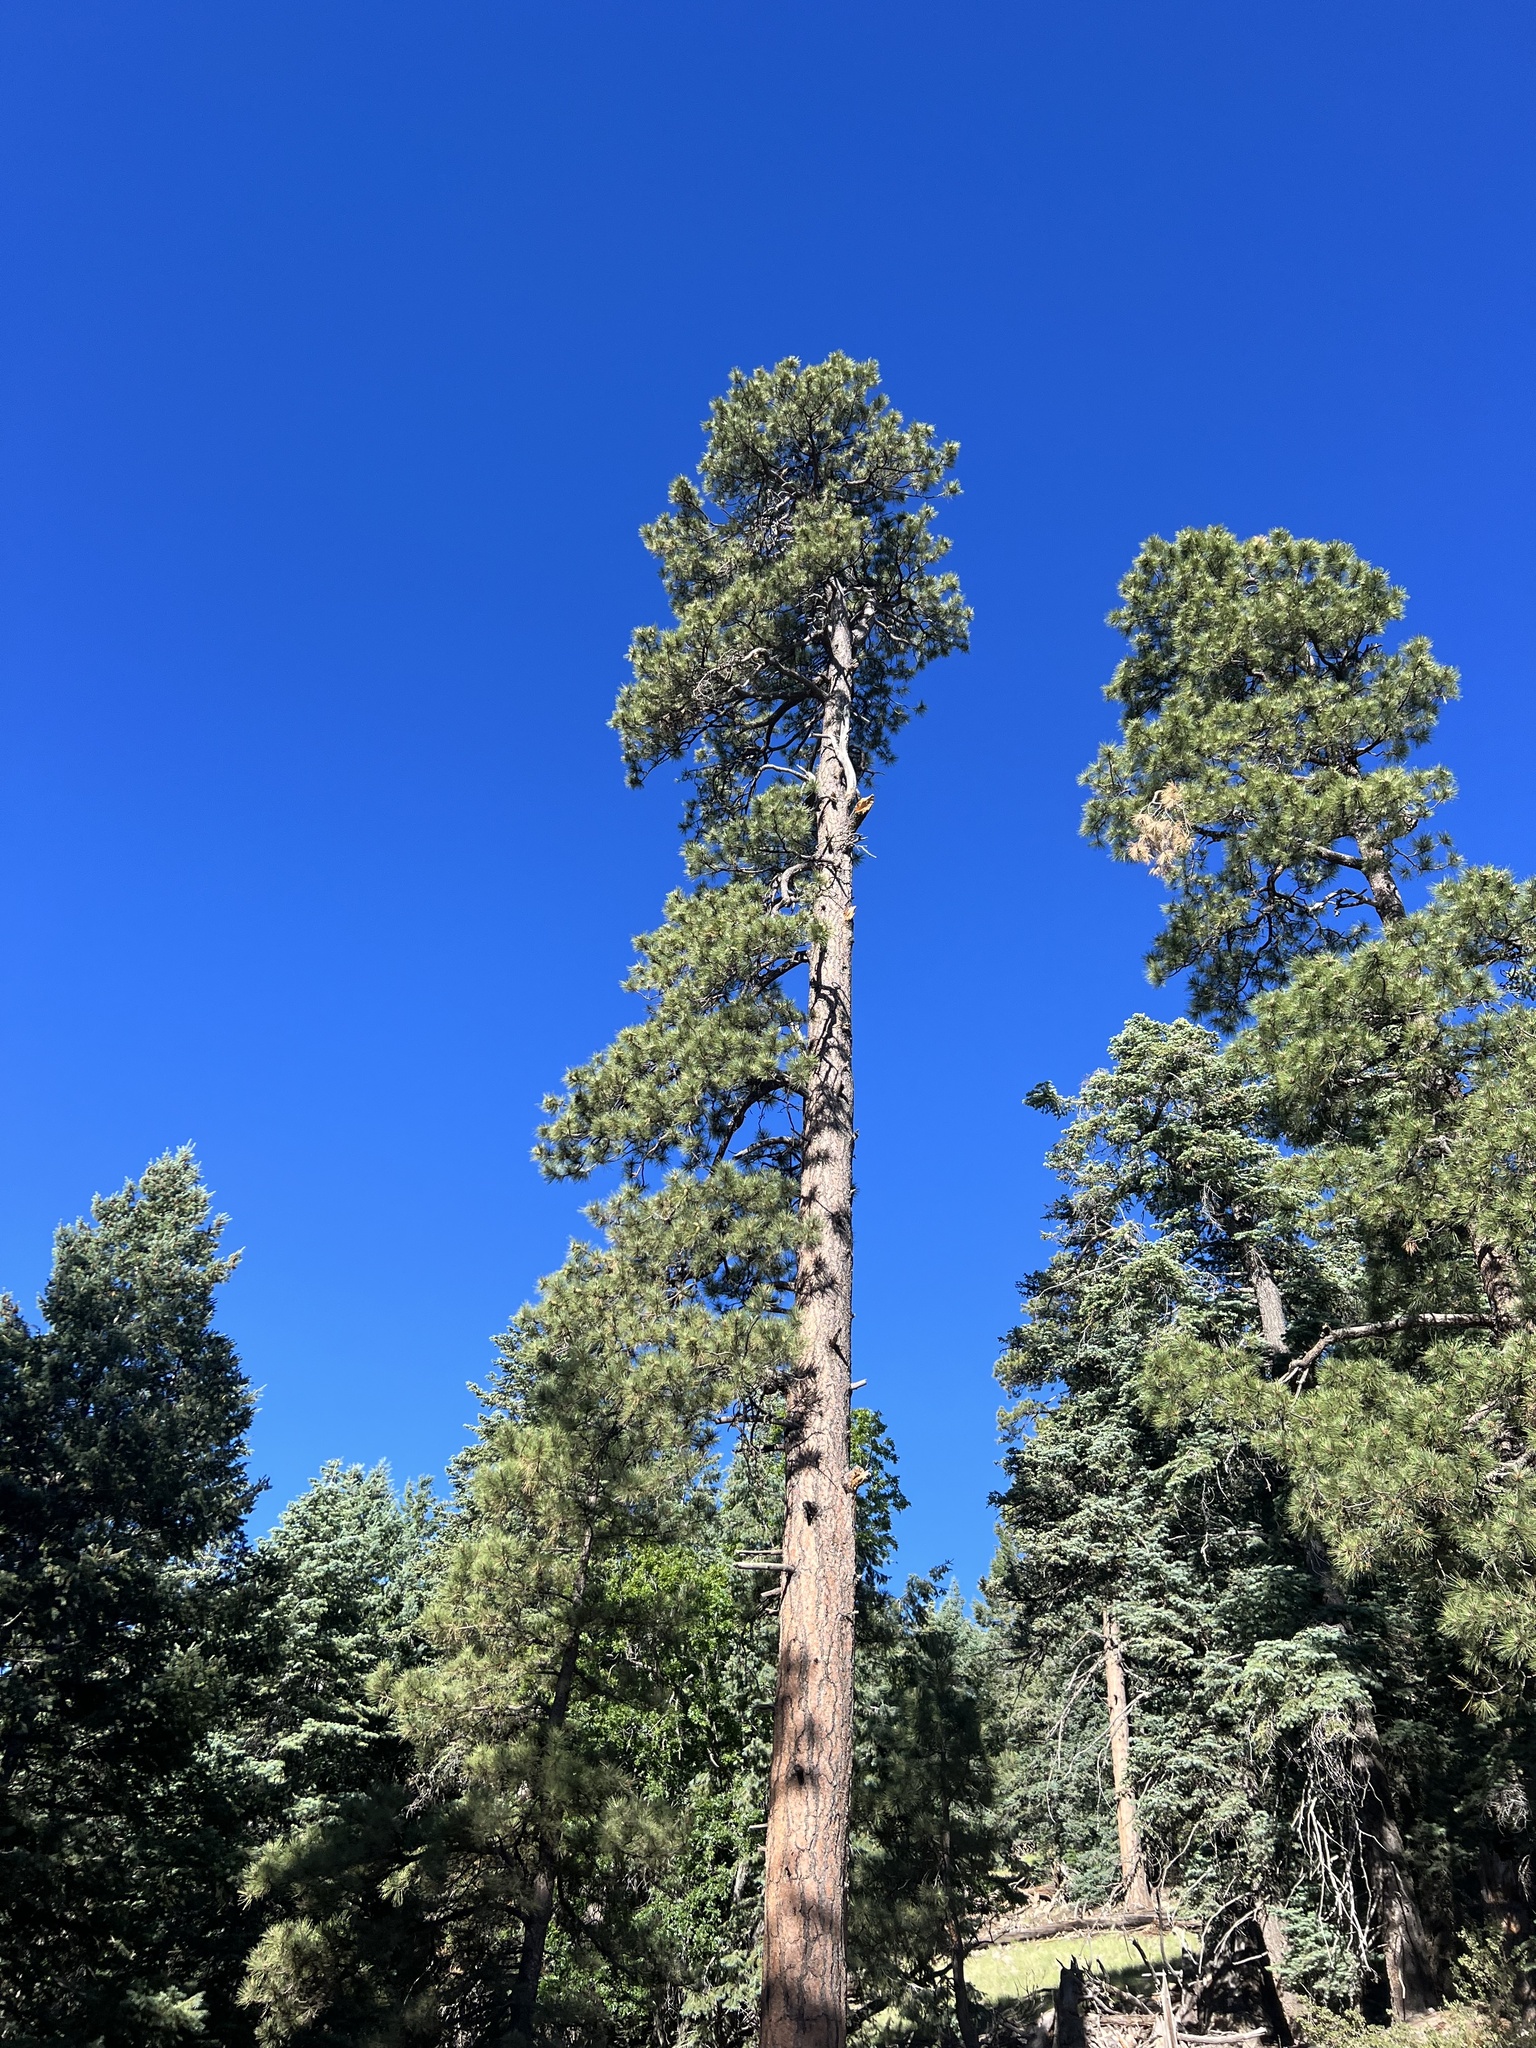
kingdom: Plantae
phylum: Tracheophyta
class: Pinopsida
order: Pinales
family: Pinaceae
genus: Pinus
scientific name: Pinus ponderosa
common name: Western yellow-pine
